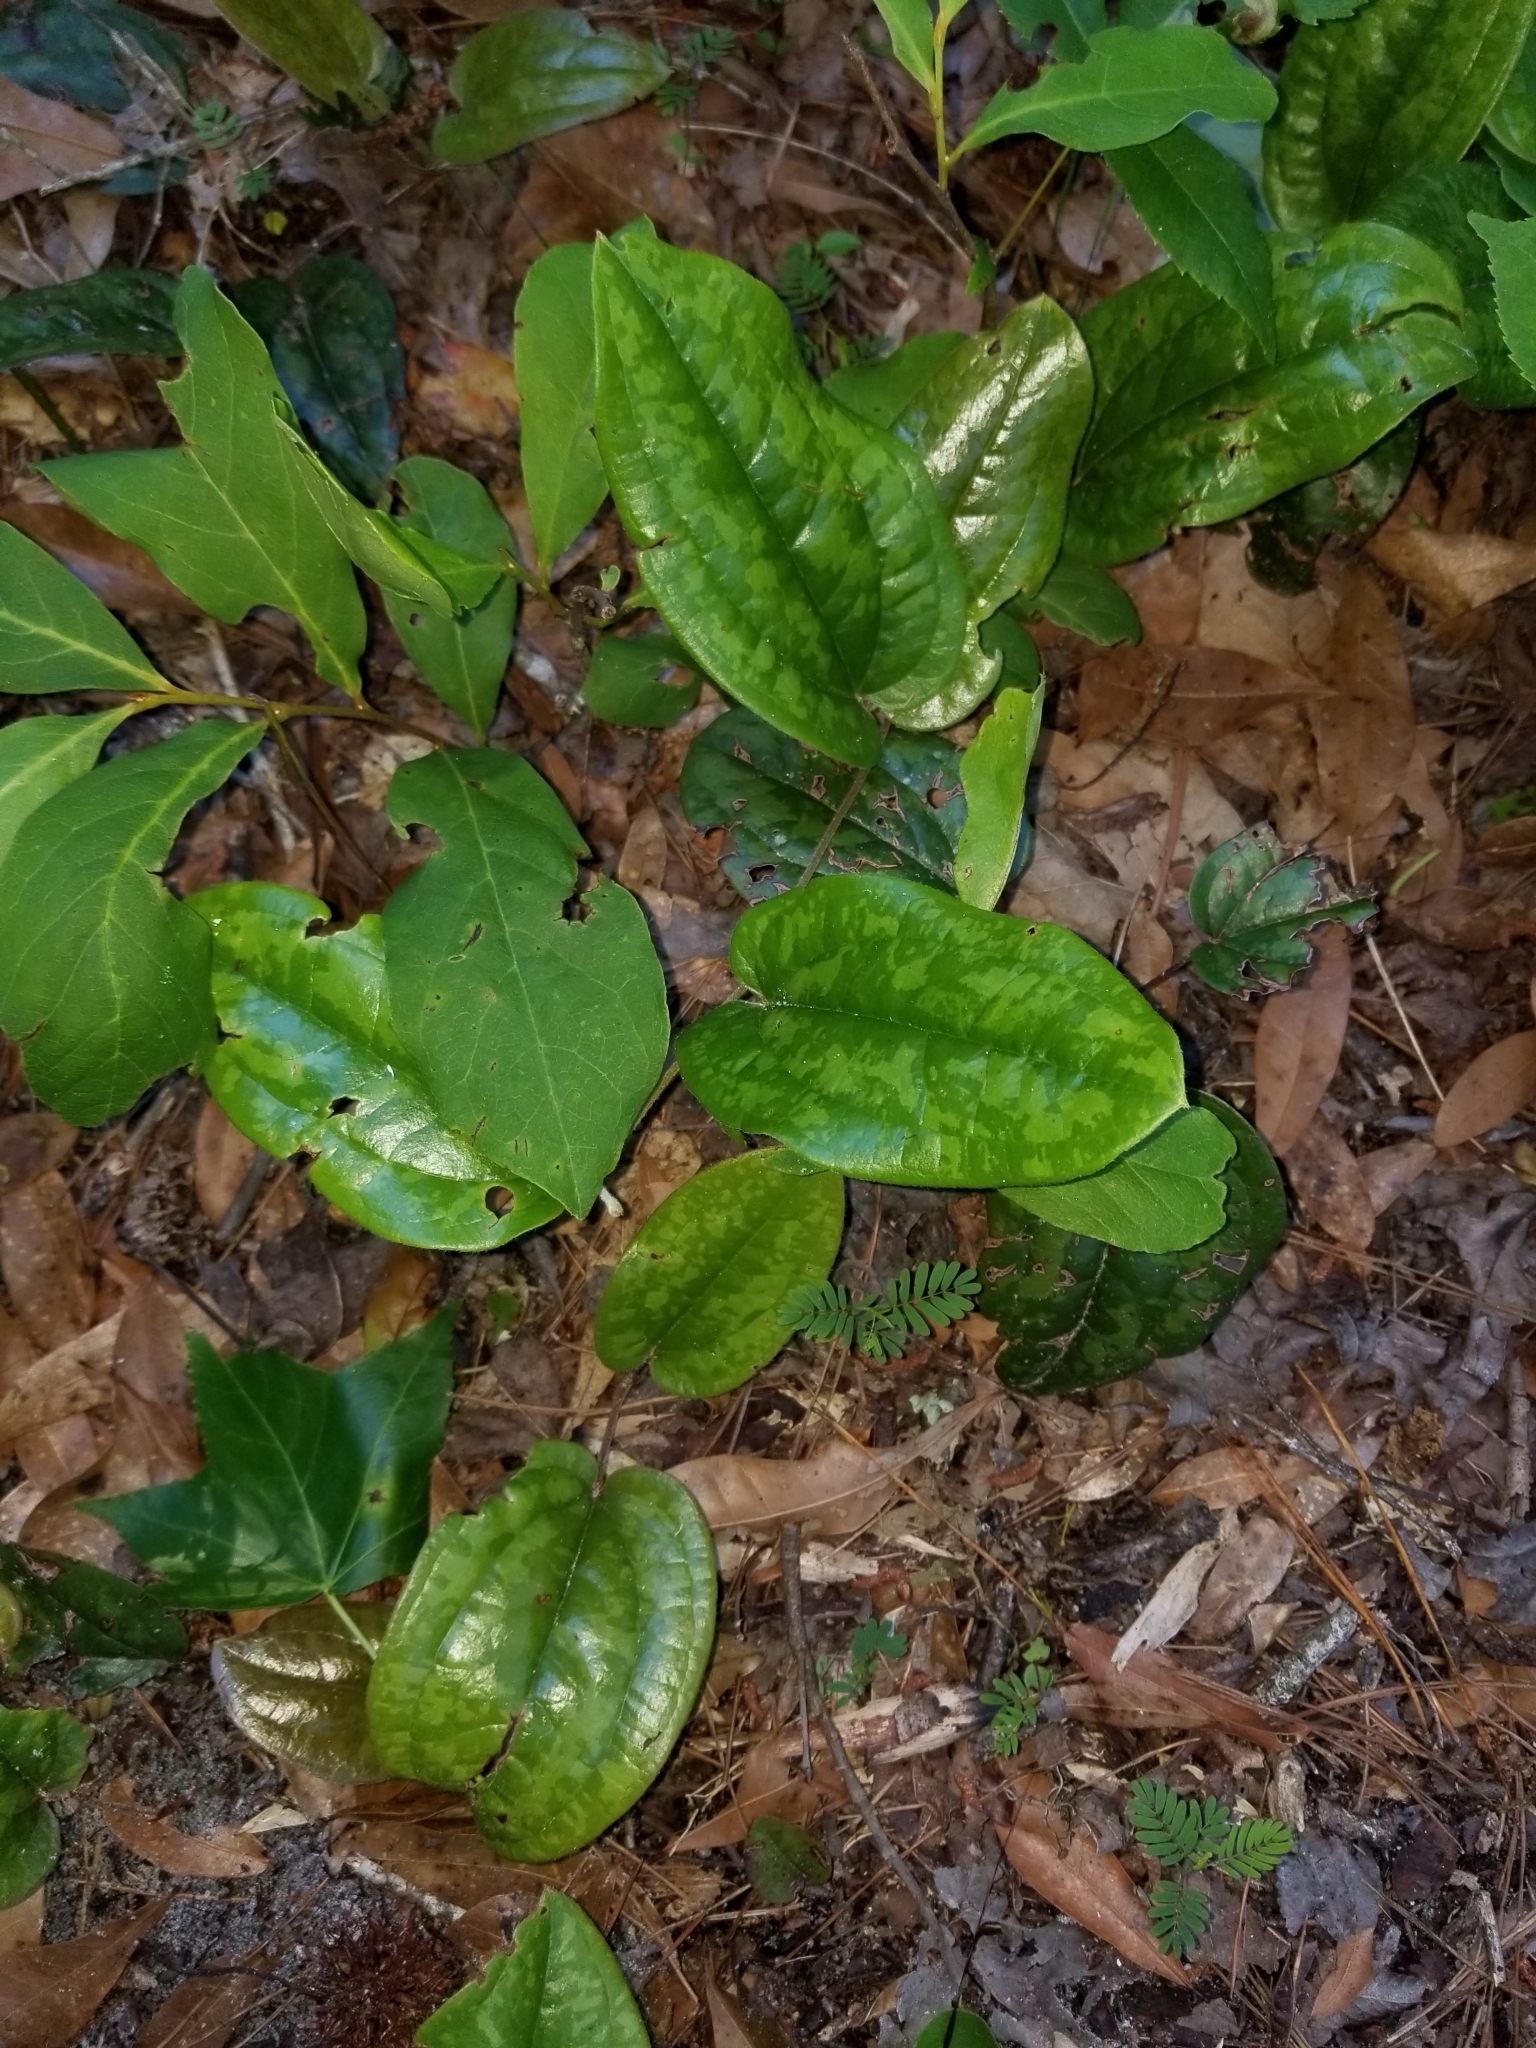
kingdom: Plantae
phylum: Tracheophyta
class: Liliopsida
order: Liliales
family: Smilacaceae
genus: Smilax
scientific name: Smilax pumila
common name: Sarsaparilla-vine
